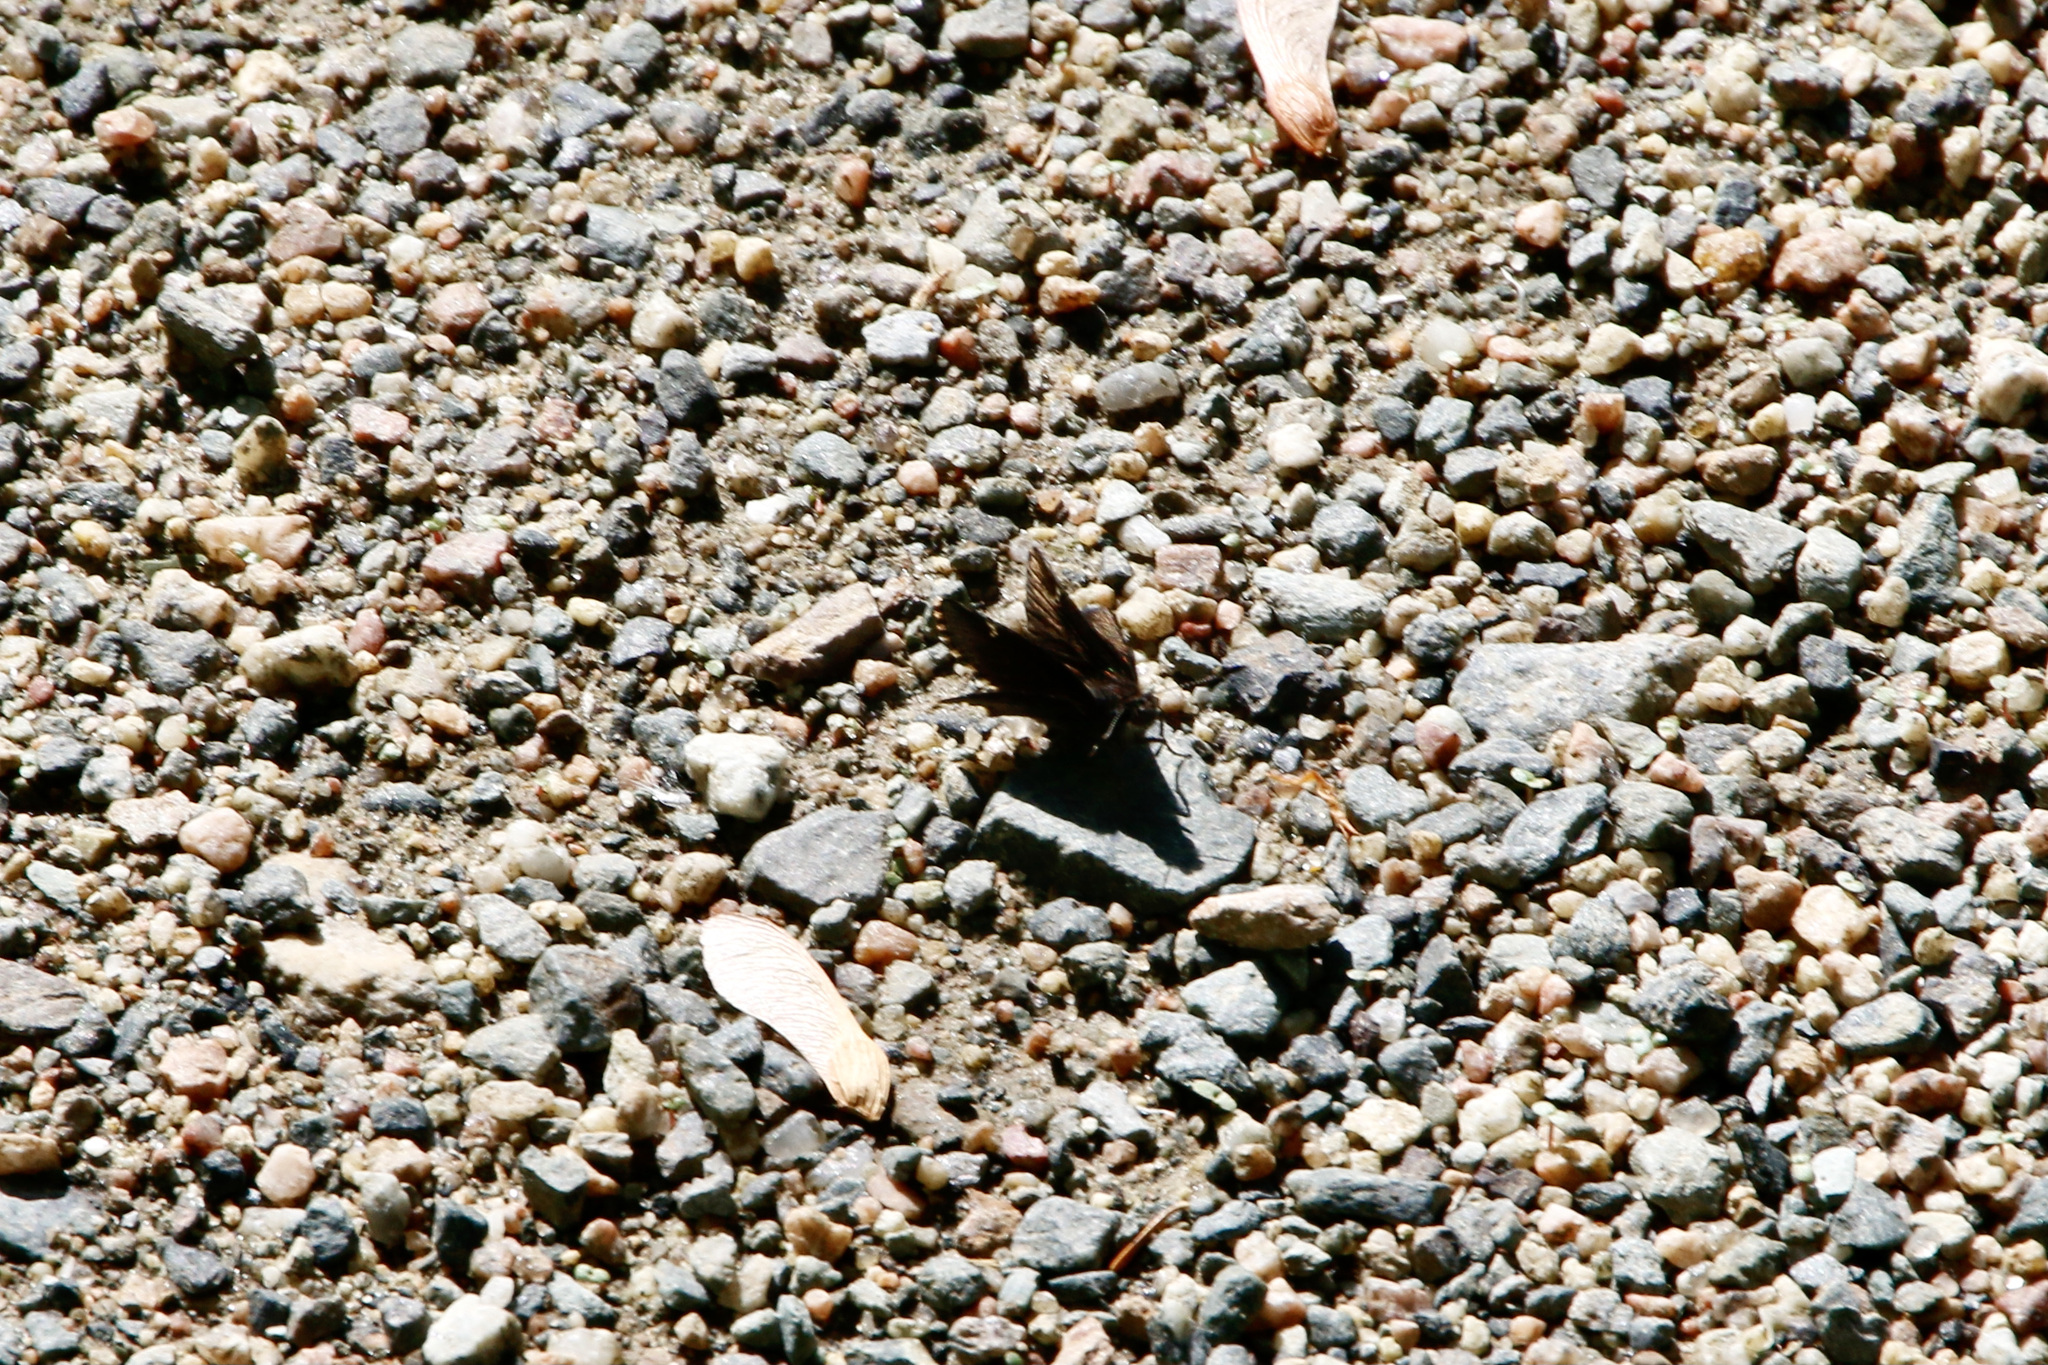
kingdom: Animalia
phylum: Arthropoda
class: Insecta
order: Lepidoptera
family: Hesperiidae
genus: Mastor
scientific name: Mastor vialis
